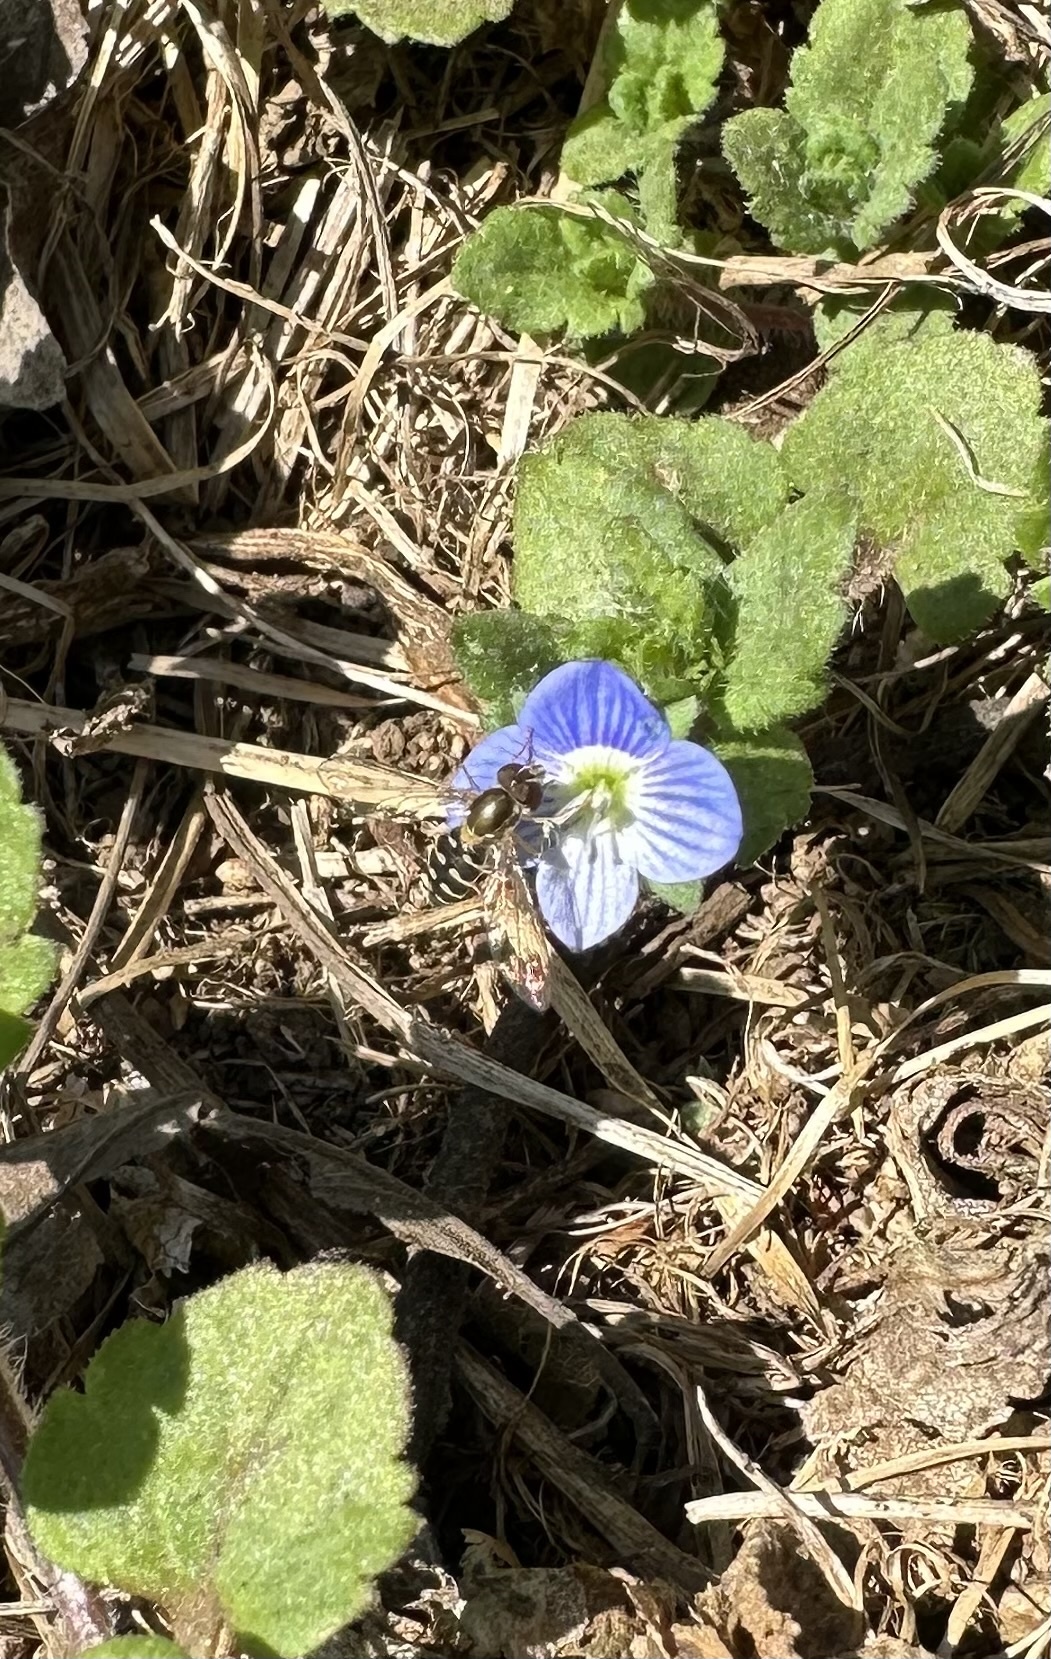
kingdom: Animalia
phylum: Arthropoda
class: Insecta
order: Diptera
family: Syrphidae
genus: Toxomerus
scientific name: Toxomerus vertebratus
